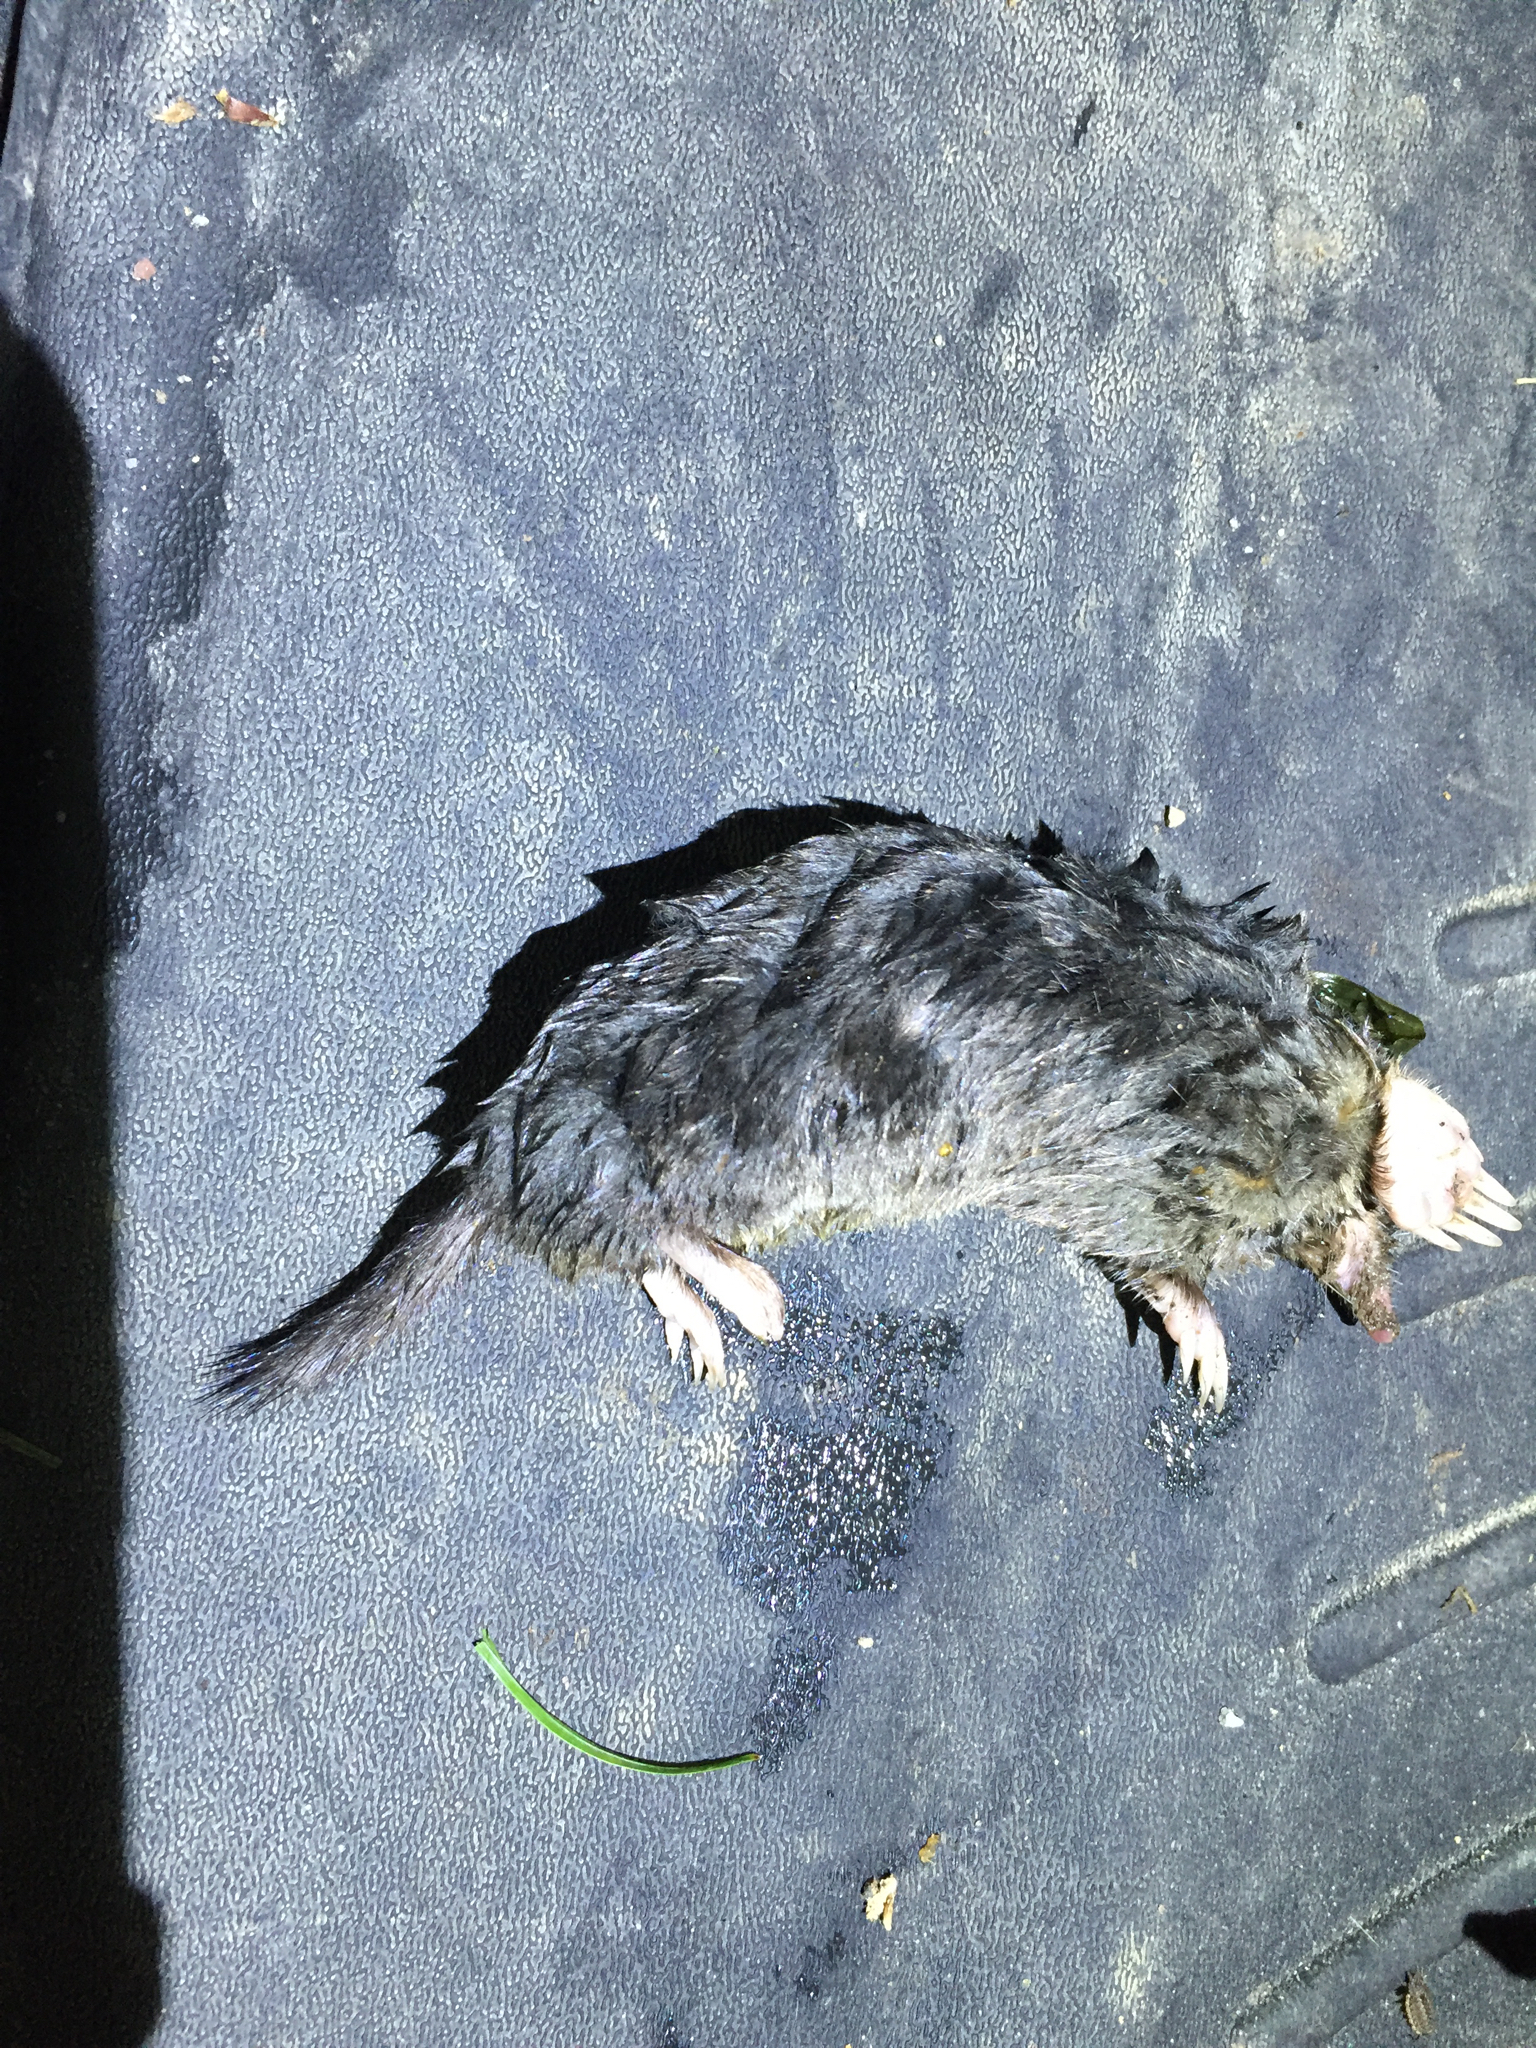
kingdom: Animalia
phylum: Chordata
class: Mammalia
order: Soricomorpha
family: Talpidae
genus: Parascalops
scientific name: Parascalops breweri
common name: Hairy-tailed mole
